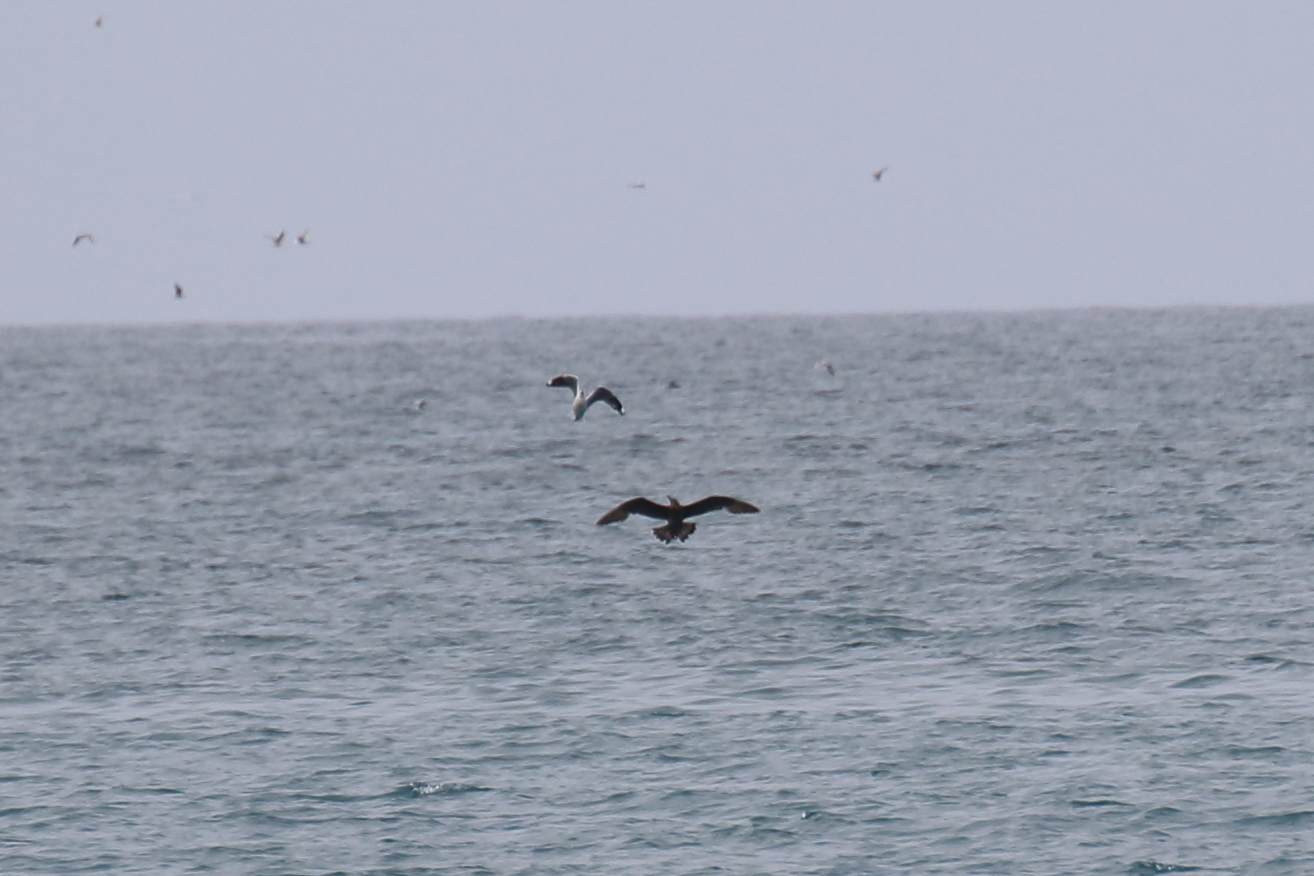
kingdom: Animalia
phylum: Chordata
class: Aves
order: Charadriiformes
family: Stercorariidae
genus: Stercorarius
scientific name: Stercorarius parasiticus
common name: Parasitic jaeger
